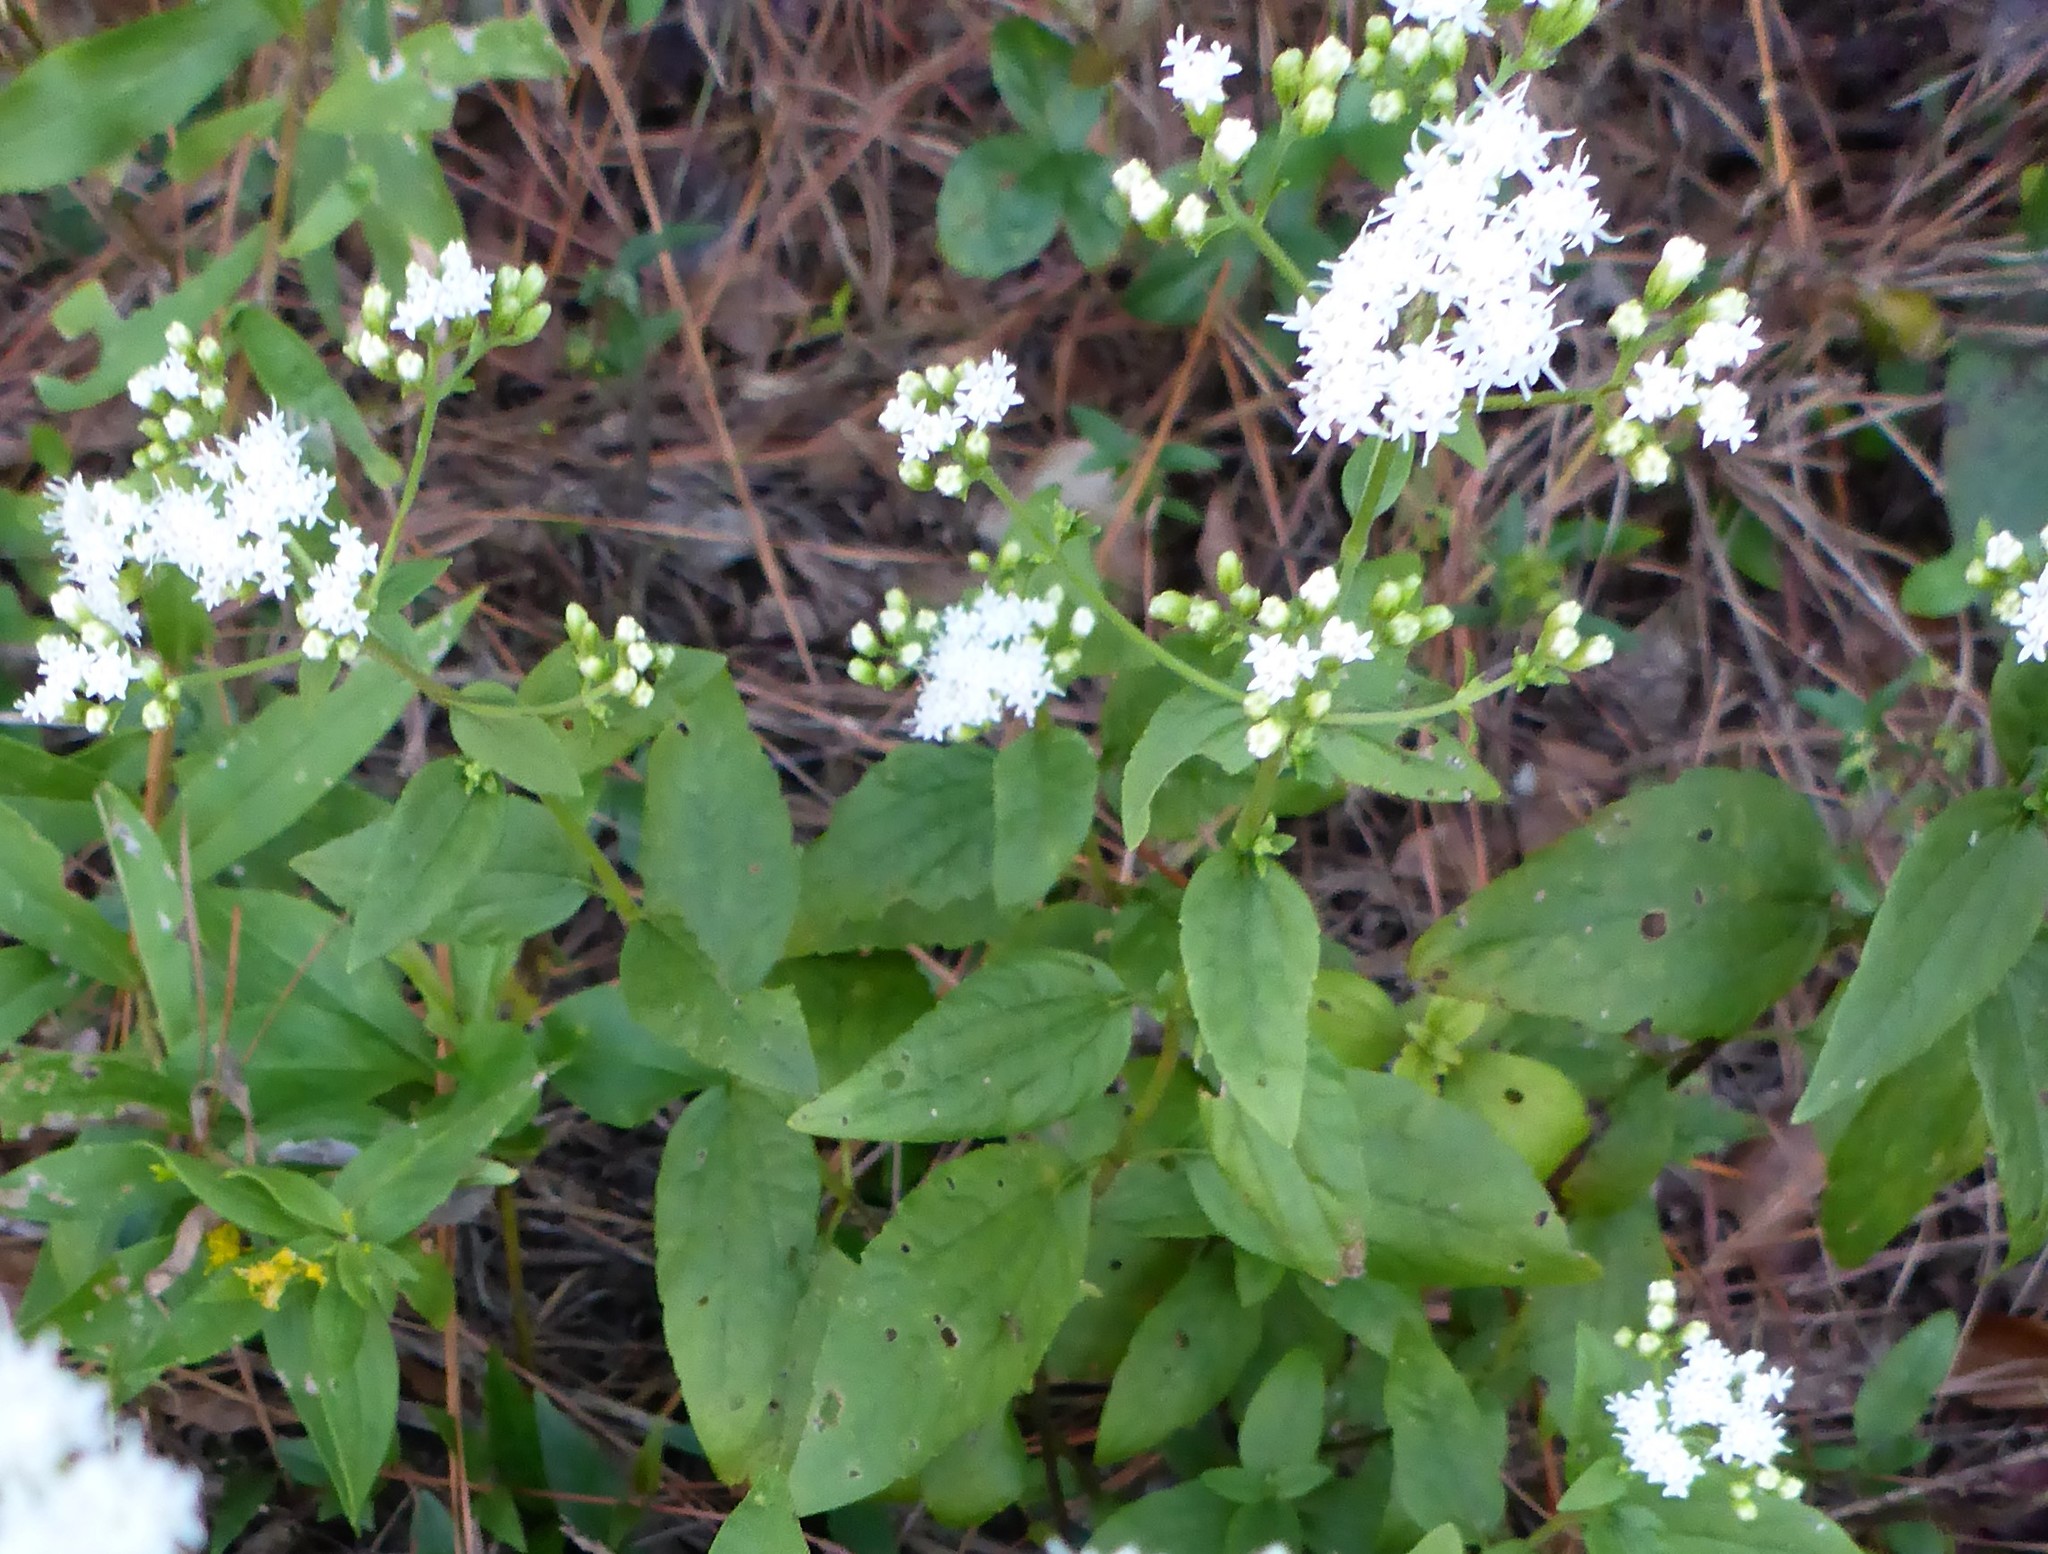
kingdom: Plantae
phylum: Tracheophyta
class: Magnoliopsida
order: Asterales
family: Asteraceae
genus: Ageratina
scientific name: Ageratina altissima
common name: White snakeroot
